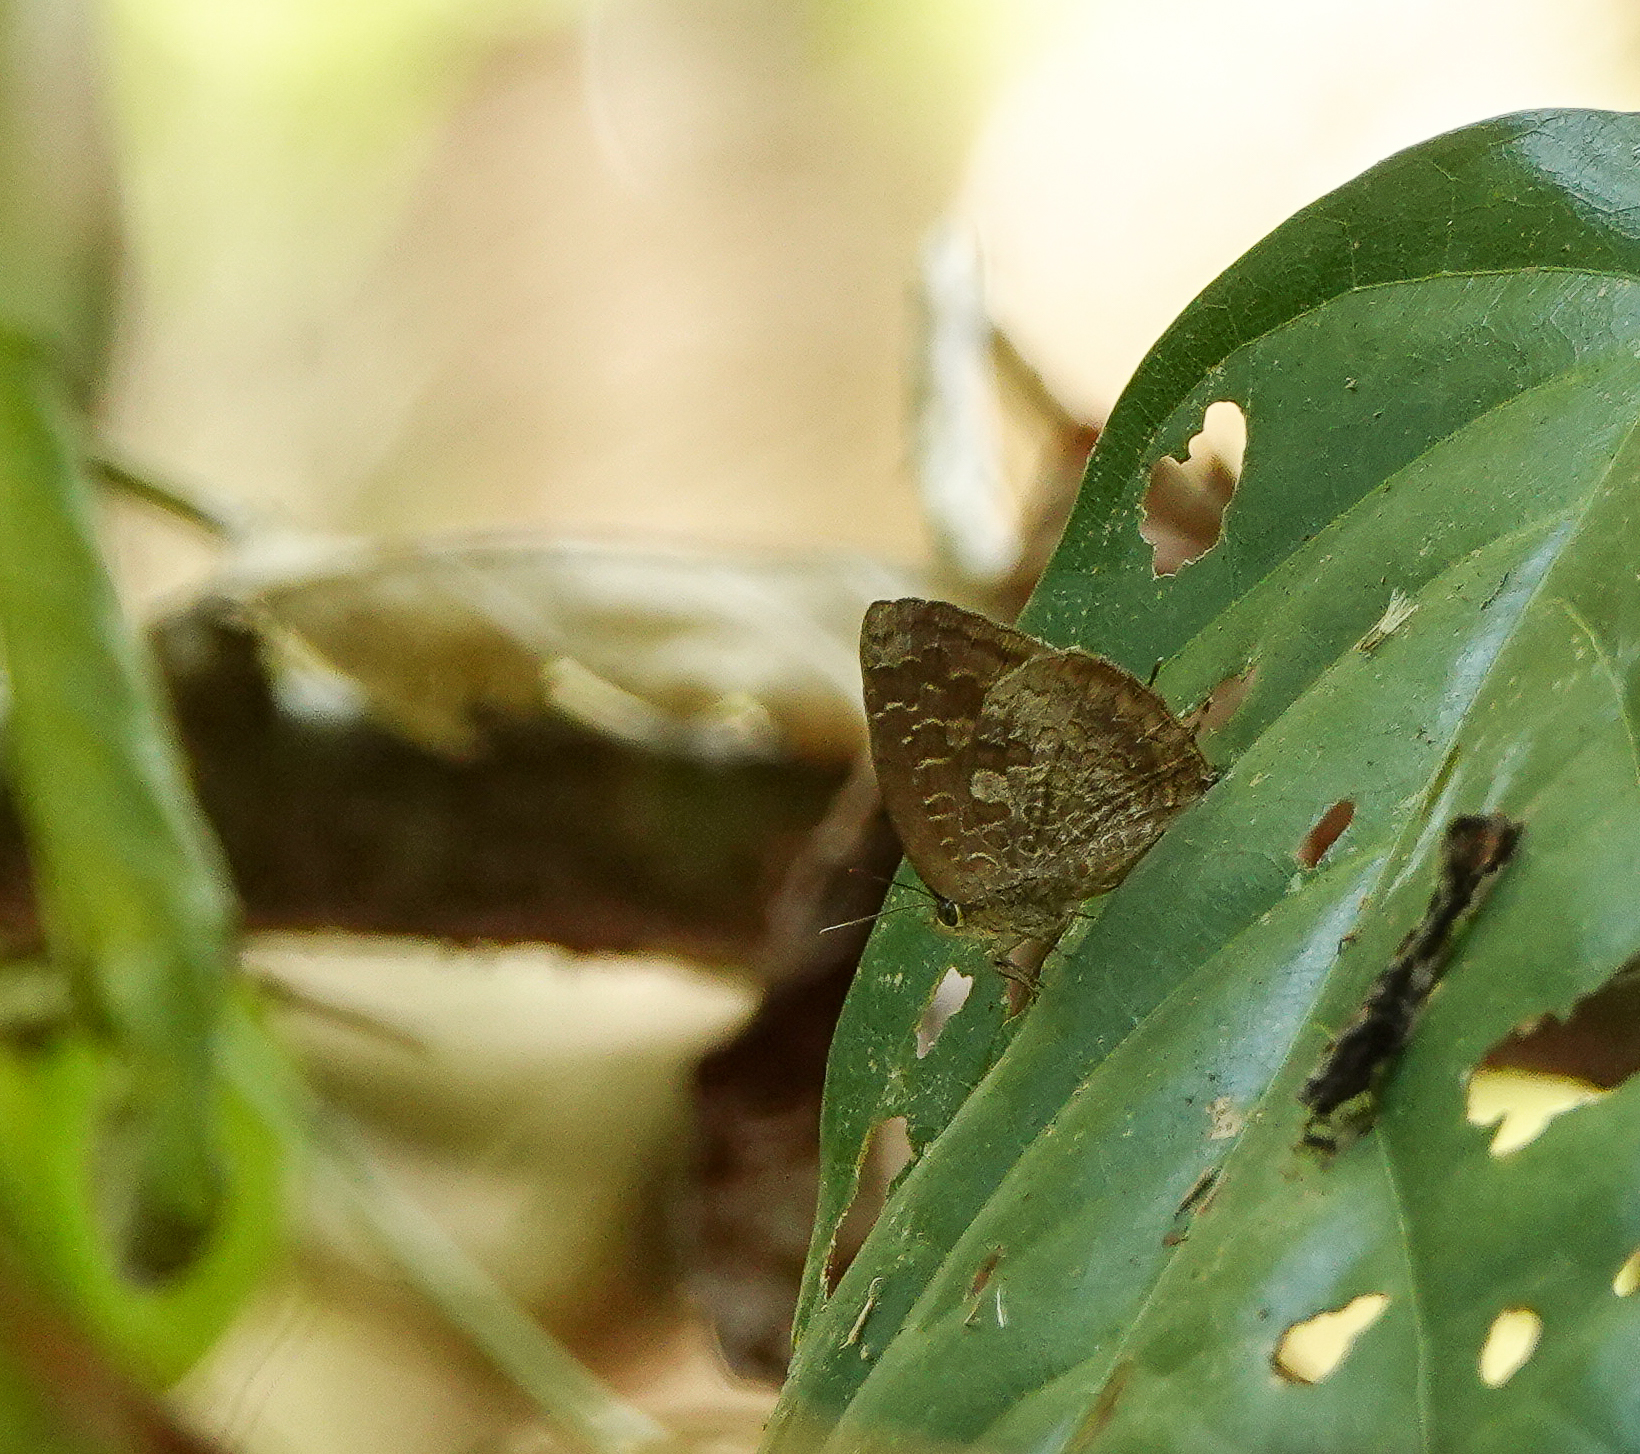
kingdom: Animalia
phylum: Arthropoda
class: Insecta
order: Lepidoptera
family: Lycaenidae
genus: Arhopala
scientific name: Arhopala bazaloides
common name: Tamil oakblue
